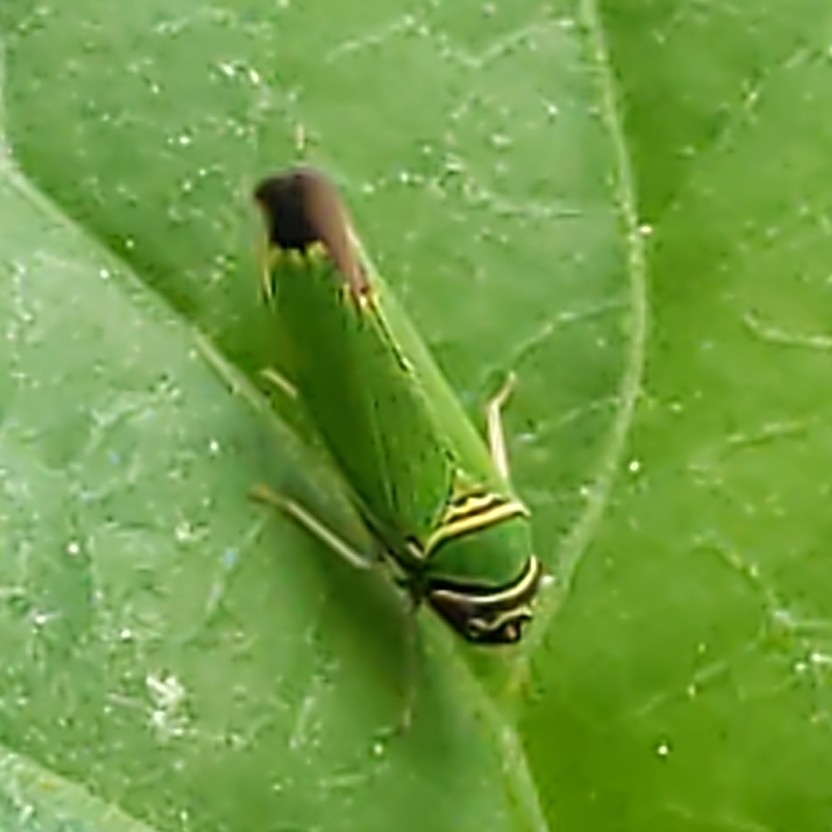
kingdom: Animalia
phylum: Arthropoda
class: Insecta
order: Hemiptera
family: Cicadellidae
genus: Tylozygus
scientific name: Tylozygus geometricus
